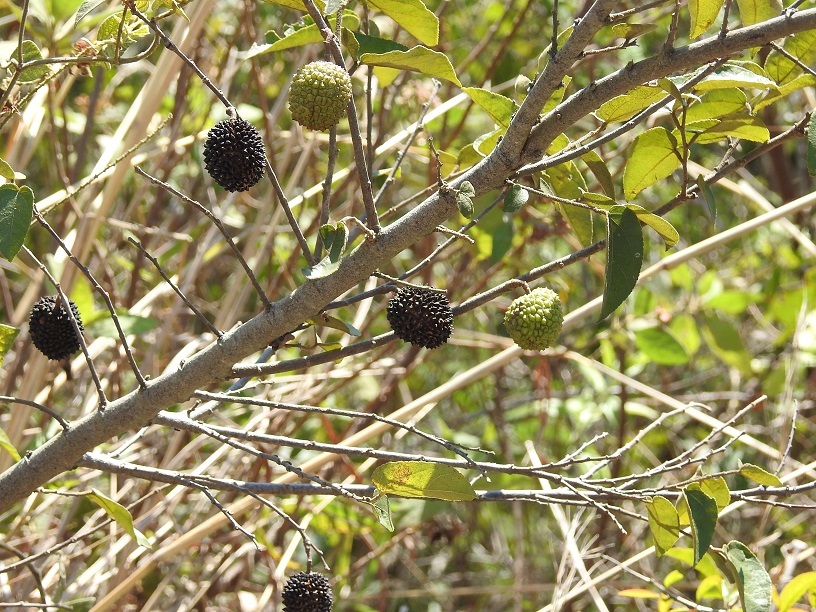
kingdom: Plantae
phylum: Tracheophyta
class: Magnoliopsida
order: Malvales
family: Malvaceae
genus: Guazuma
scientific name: Guazuma ulmifolia
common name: Bastard-cedar
